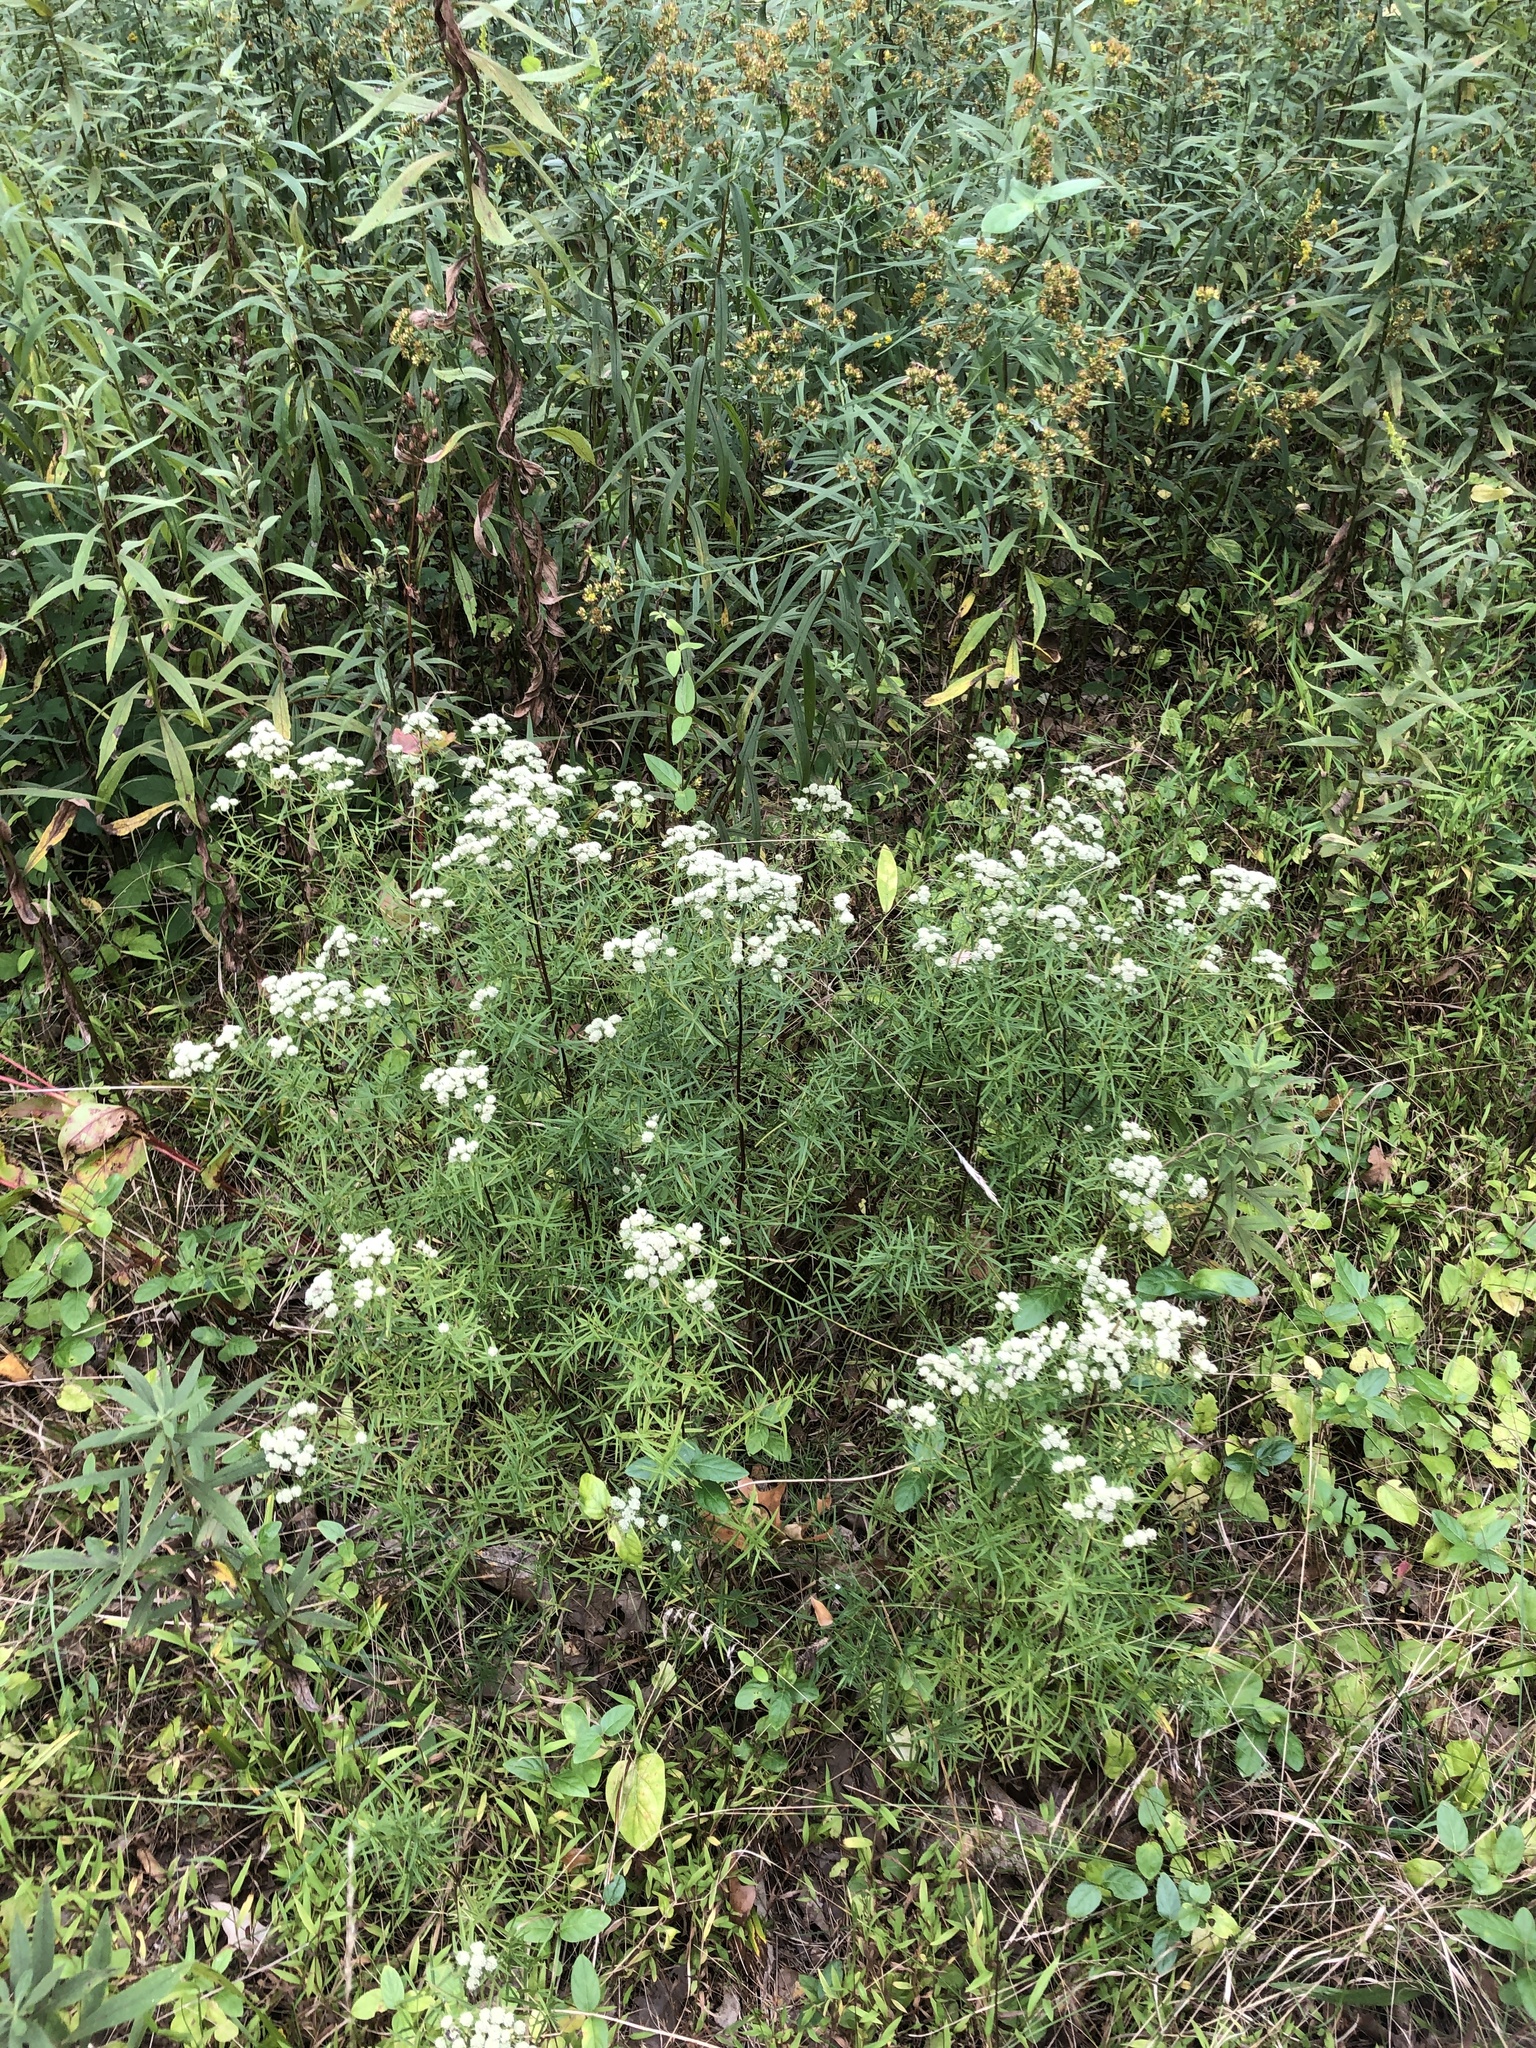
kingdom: Plantae
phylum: Tracheophyta
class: Magnoliopsida
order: Lamiales
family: Lamiaceae
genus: Pycnanthemum
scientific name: Pycnanthemum tenuifolium
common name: Narrow-leaf mountain-mint
